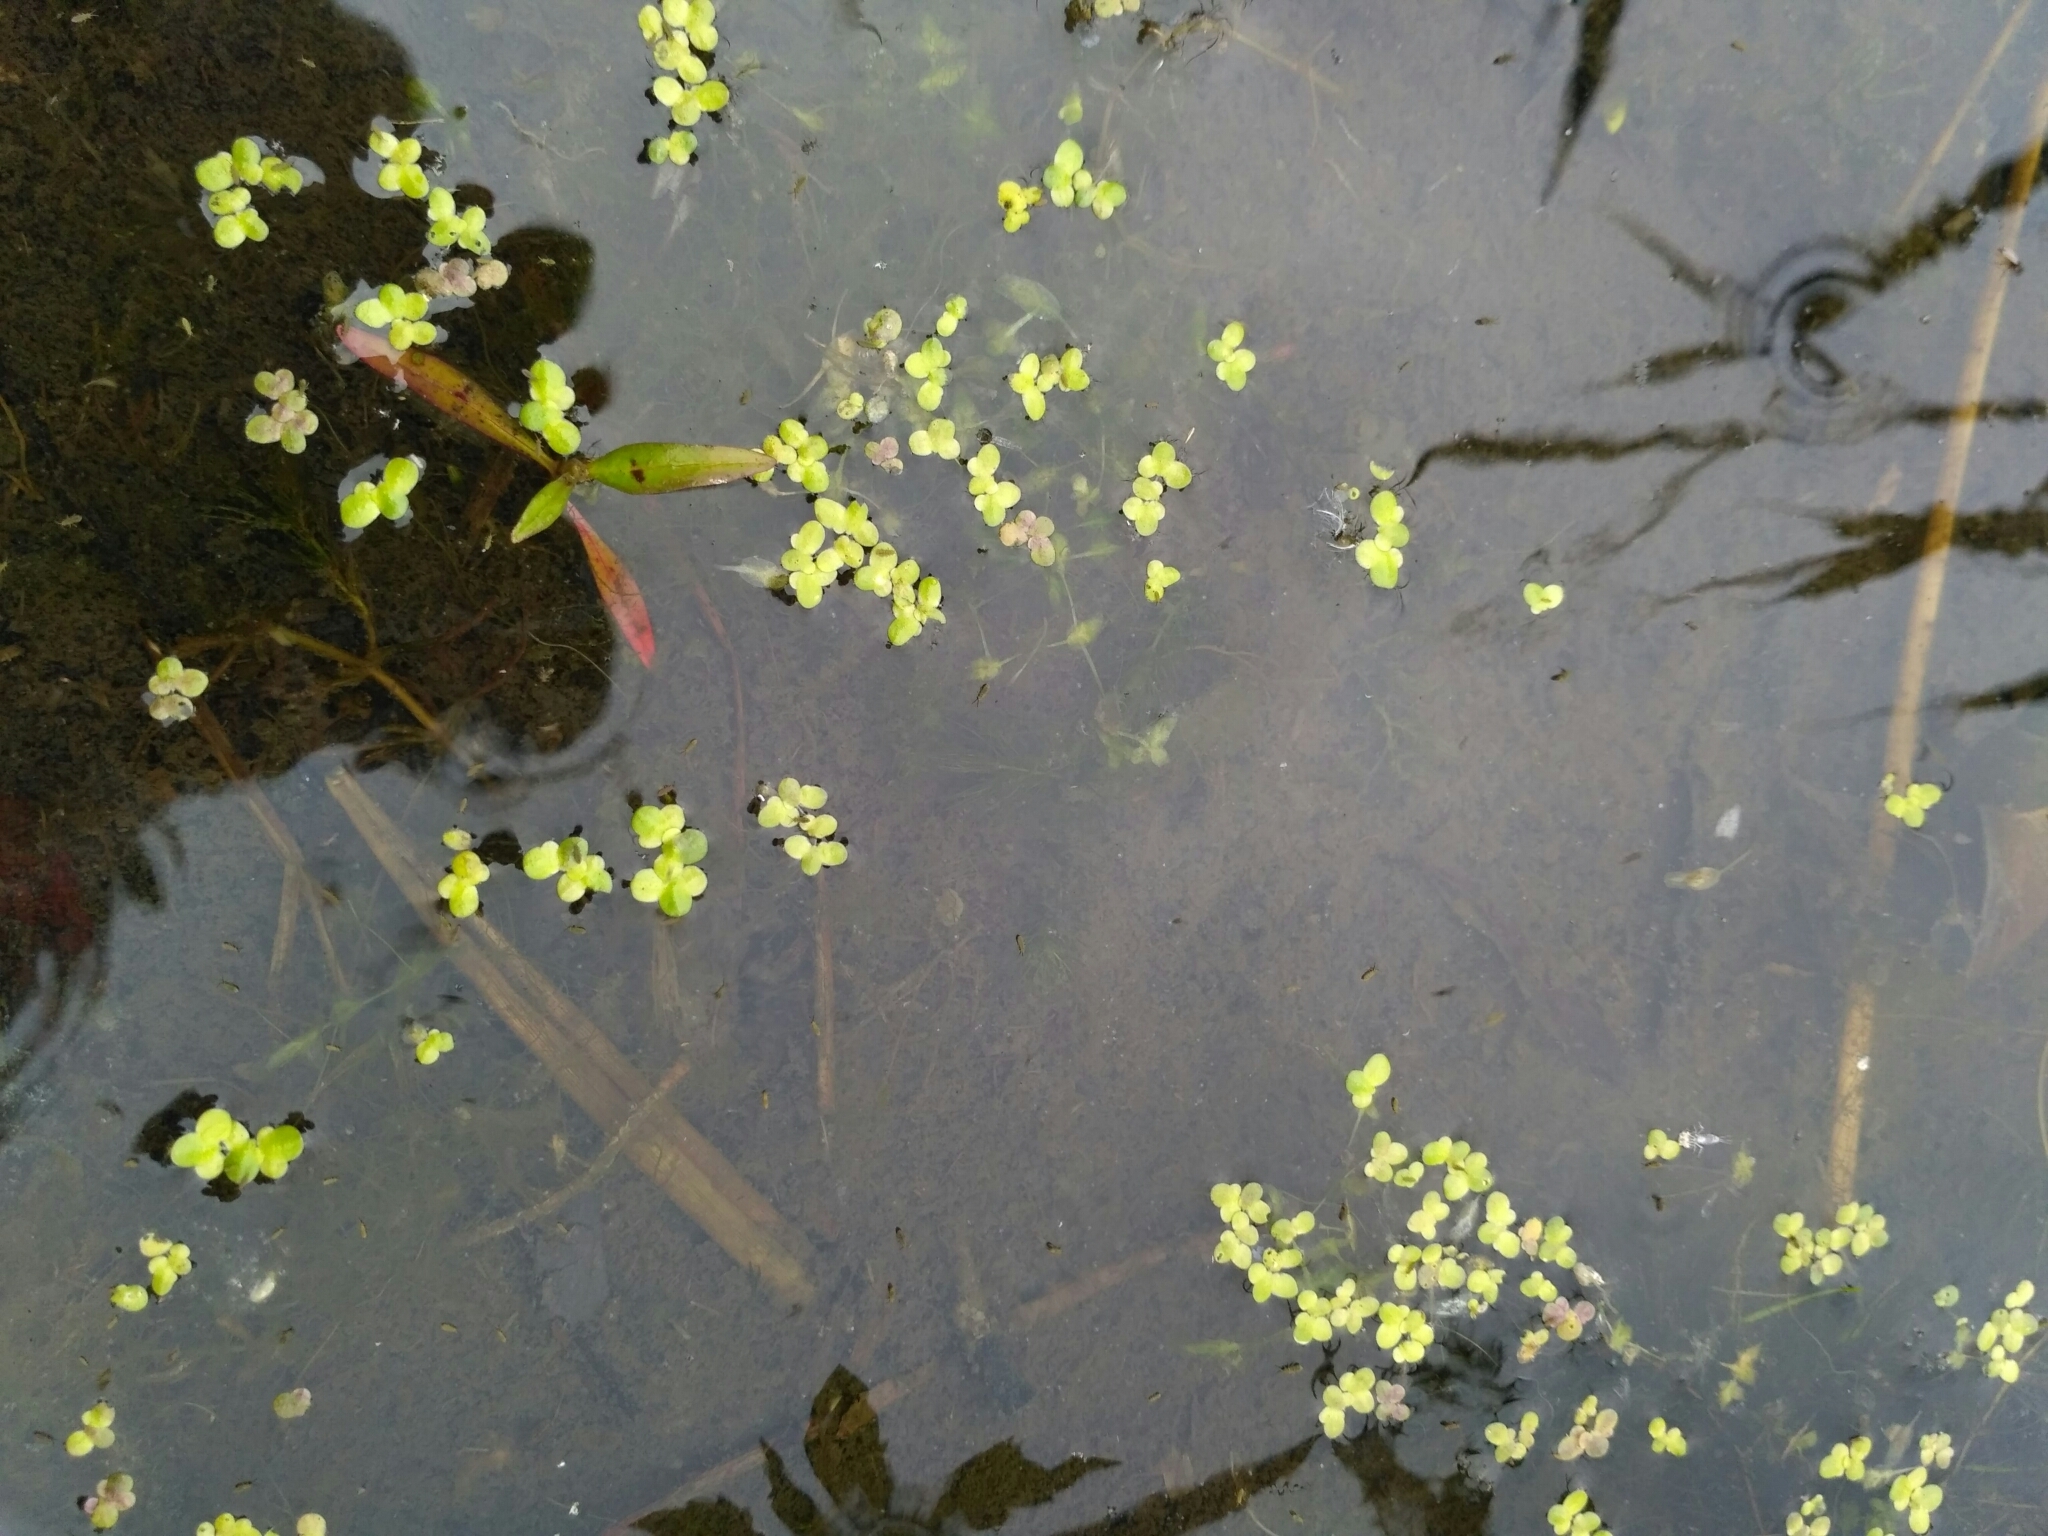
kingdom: Plantae
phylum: Tracheophyta
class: Liliopsida
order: Alismatales
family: Araceae
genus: Lemna
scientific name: Lemna minor
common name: Common duckweed
